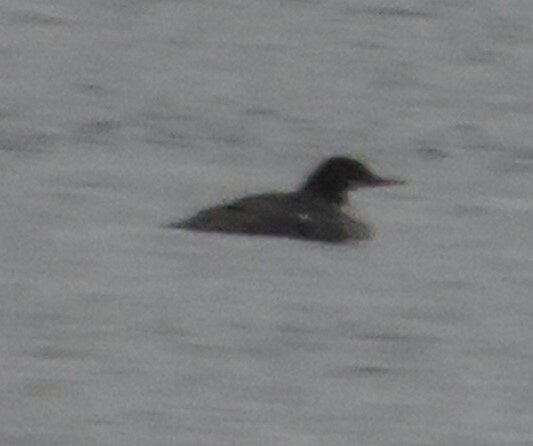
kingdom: Animalia
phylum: Chordata
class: Aves
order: Anseriformes
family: Anatidae
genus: Mergus
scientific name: Mergus merganser
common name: Common merganser
